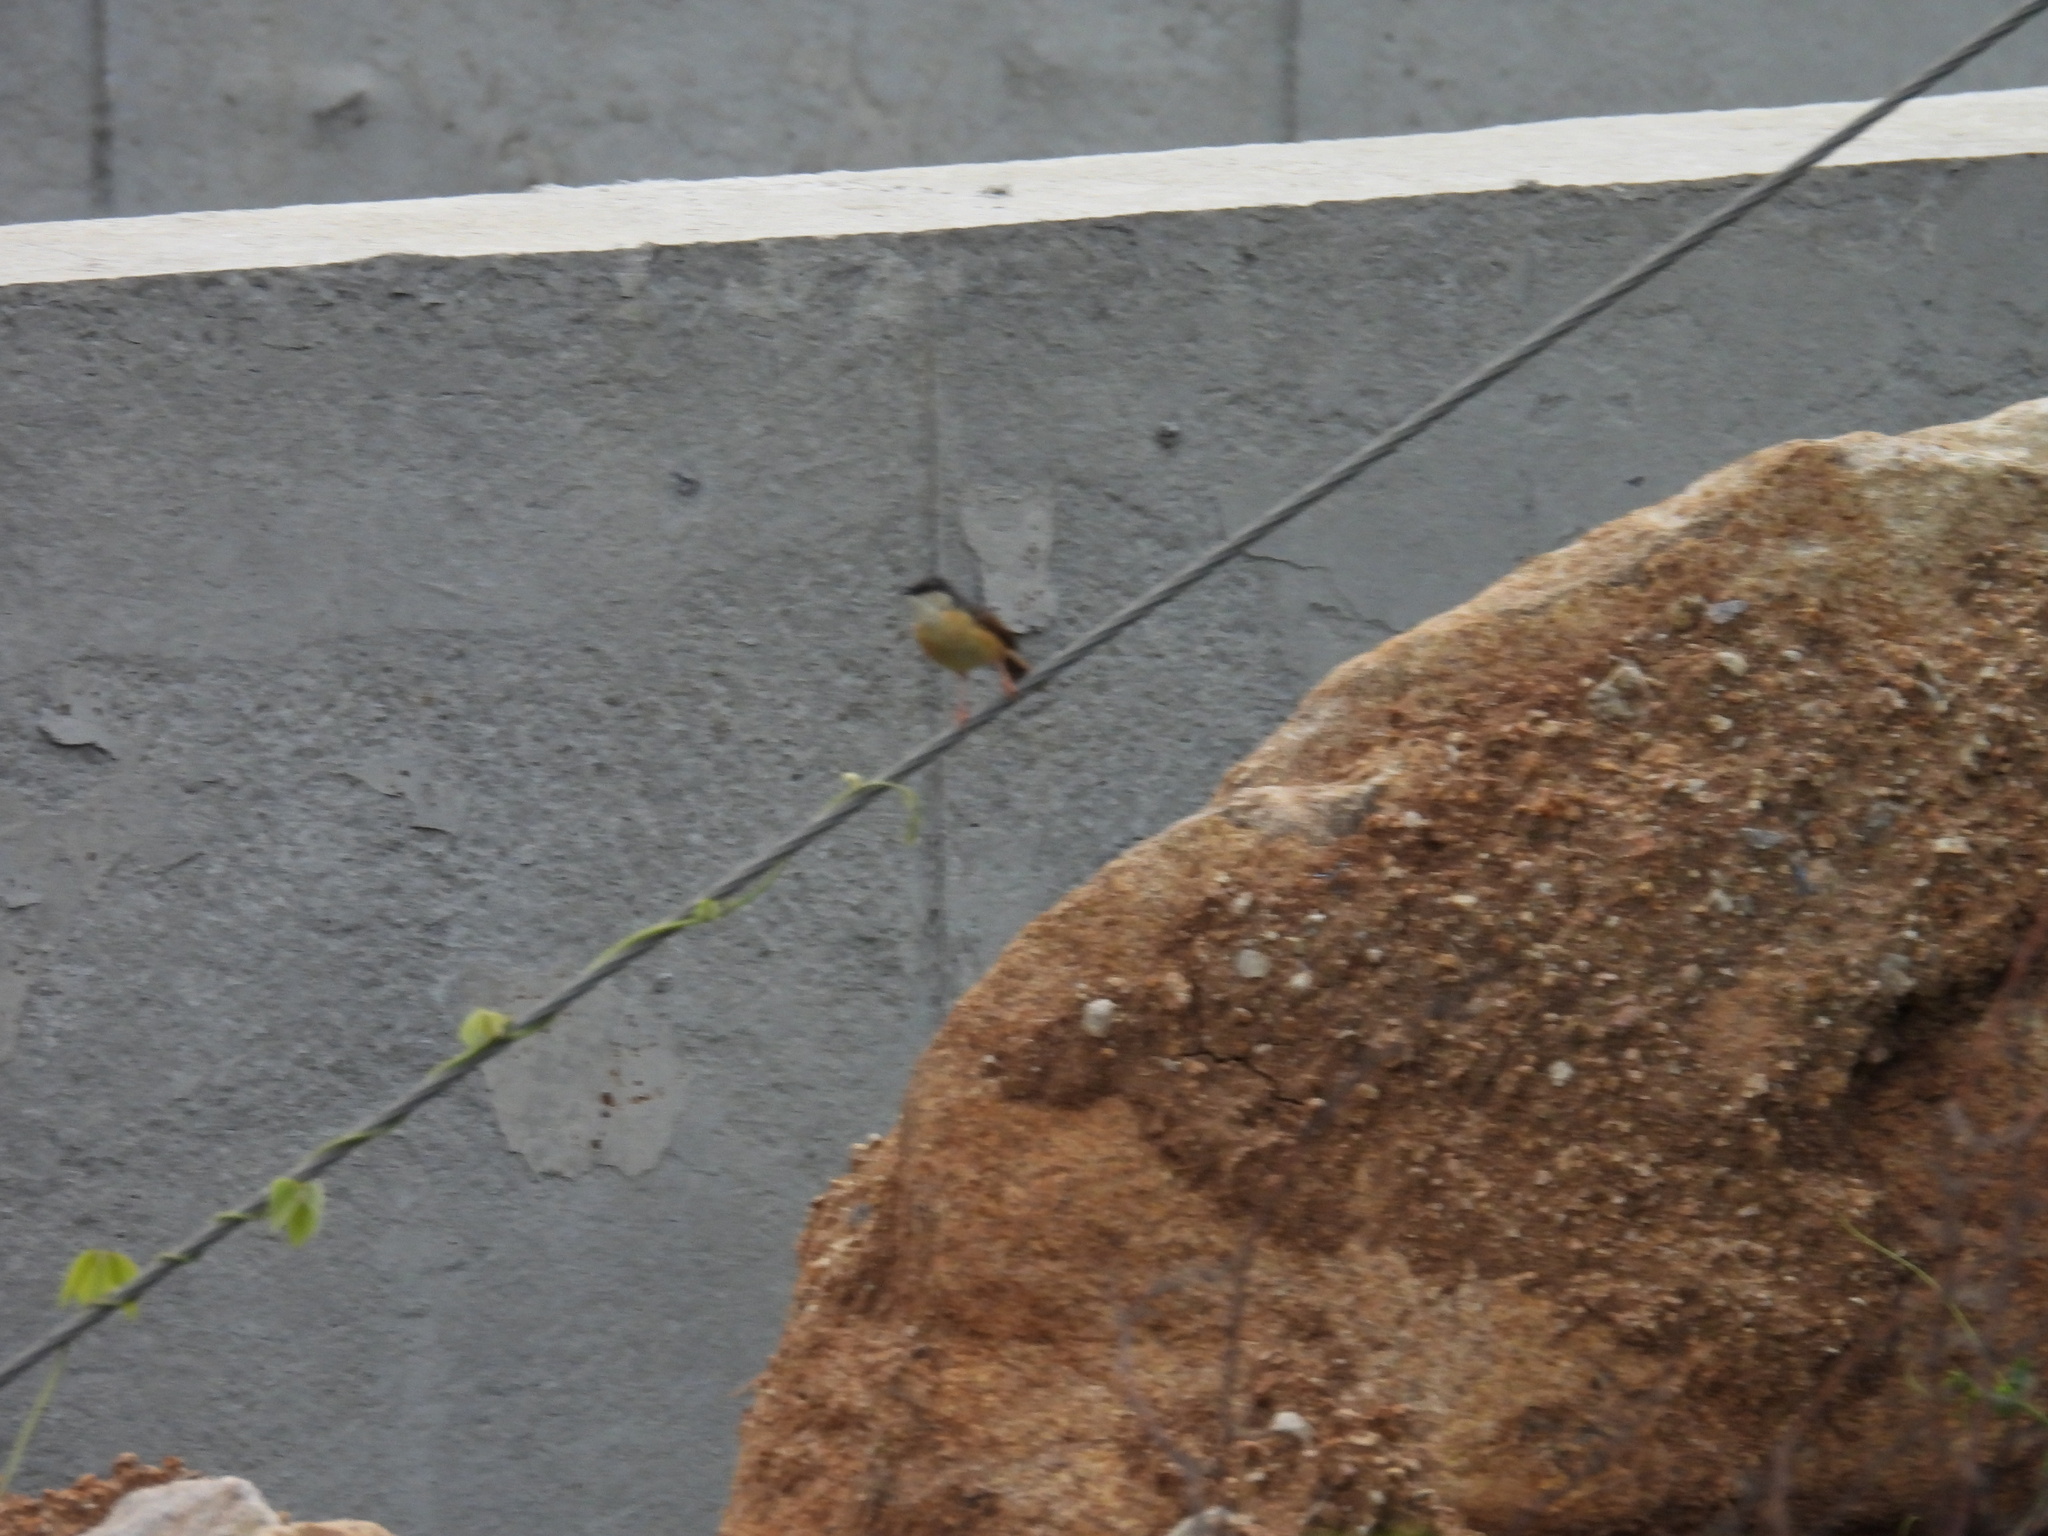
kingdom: Animalia
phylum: Chordata
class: Aves
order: Passeriformes
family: Cisticolidae
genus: Prinia
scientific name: Prinia socialis
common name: Ashy prinia
